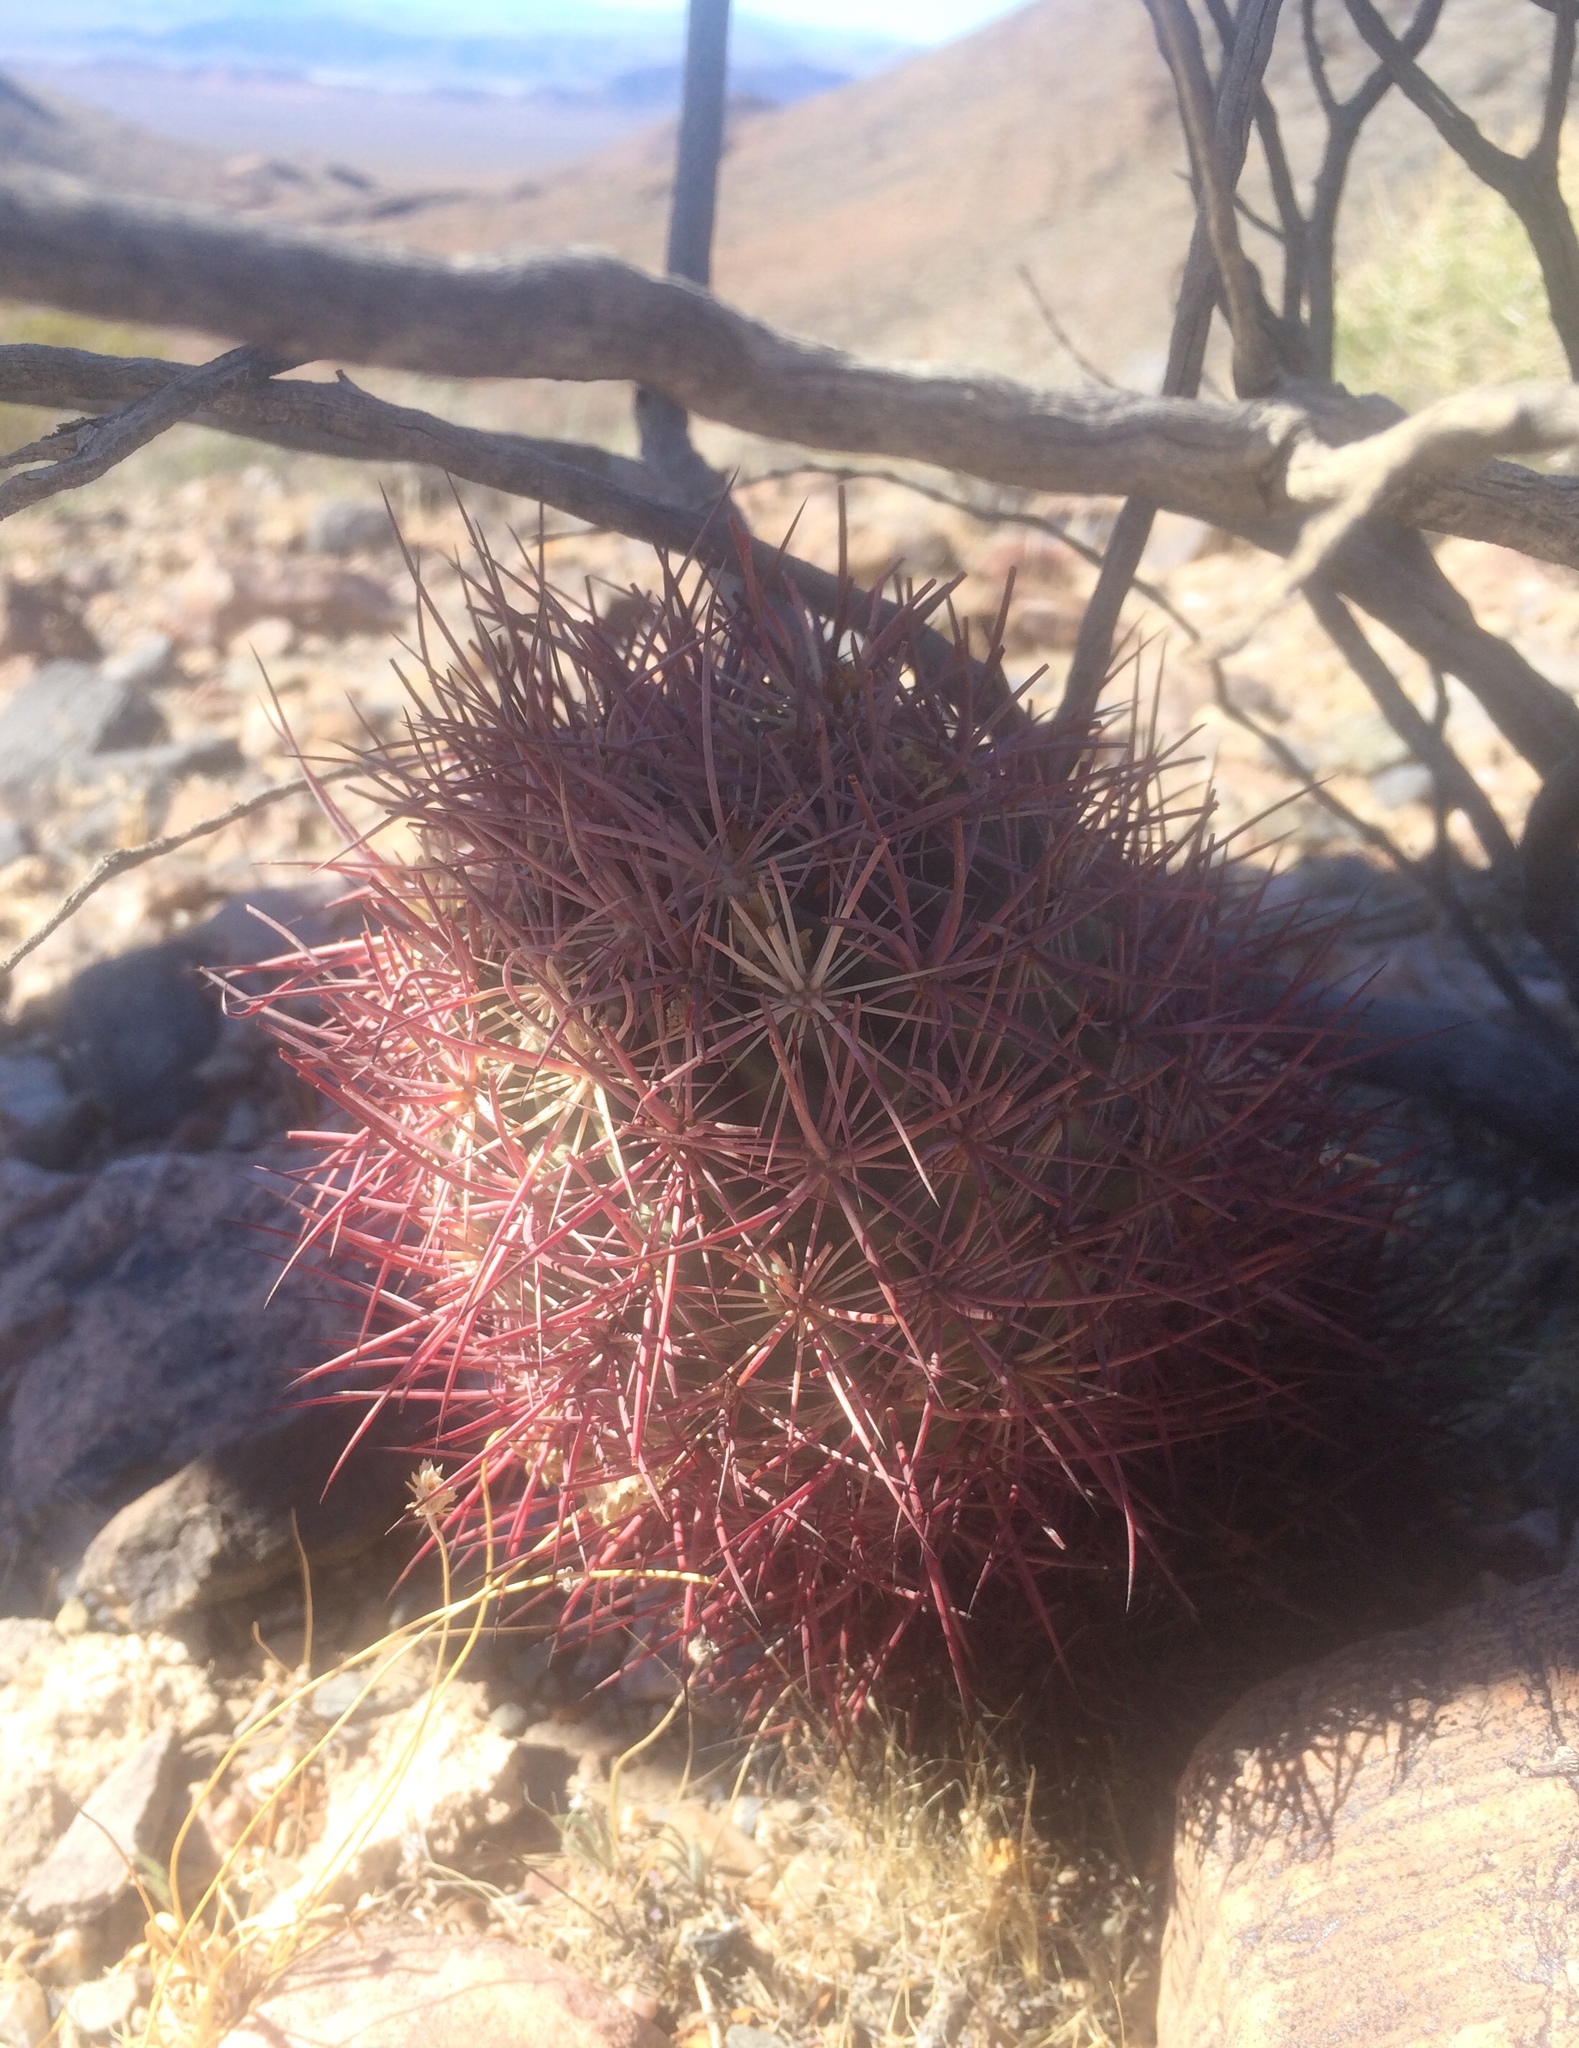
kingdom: Plantae
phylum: Tracheophyta
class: Magnoliopsida
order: Caryophyllales
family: Cactaceae
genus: Sclerocactus
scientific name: Sclerocactus johnsonii
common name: Eight-spine fishhook cactus
